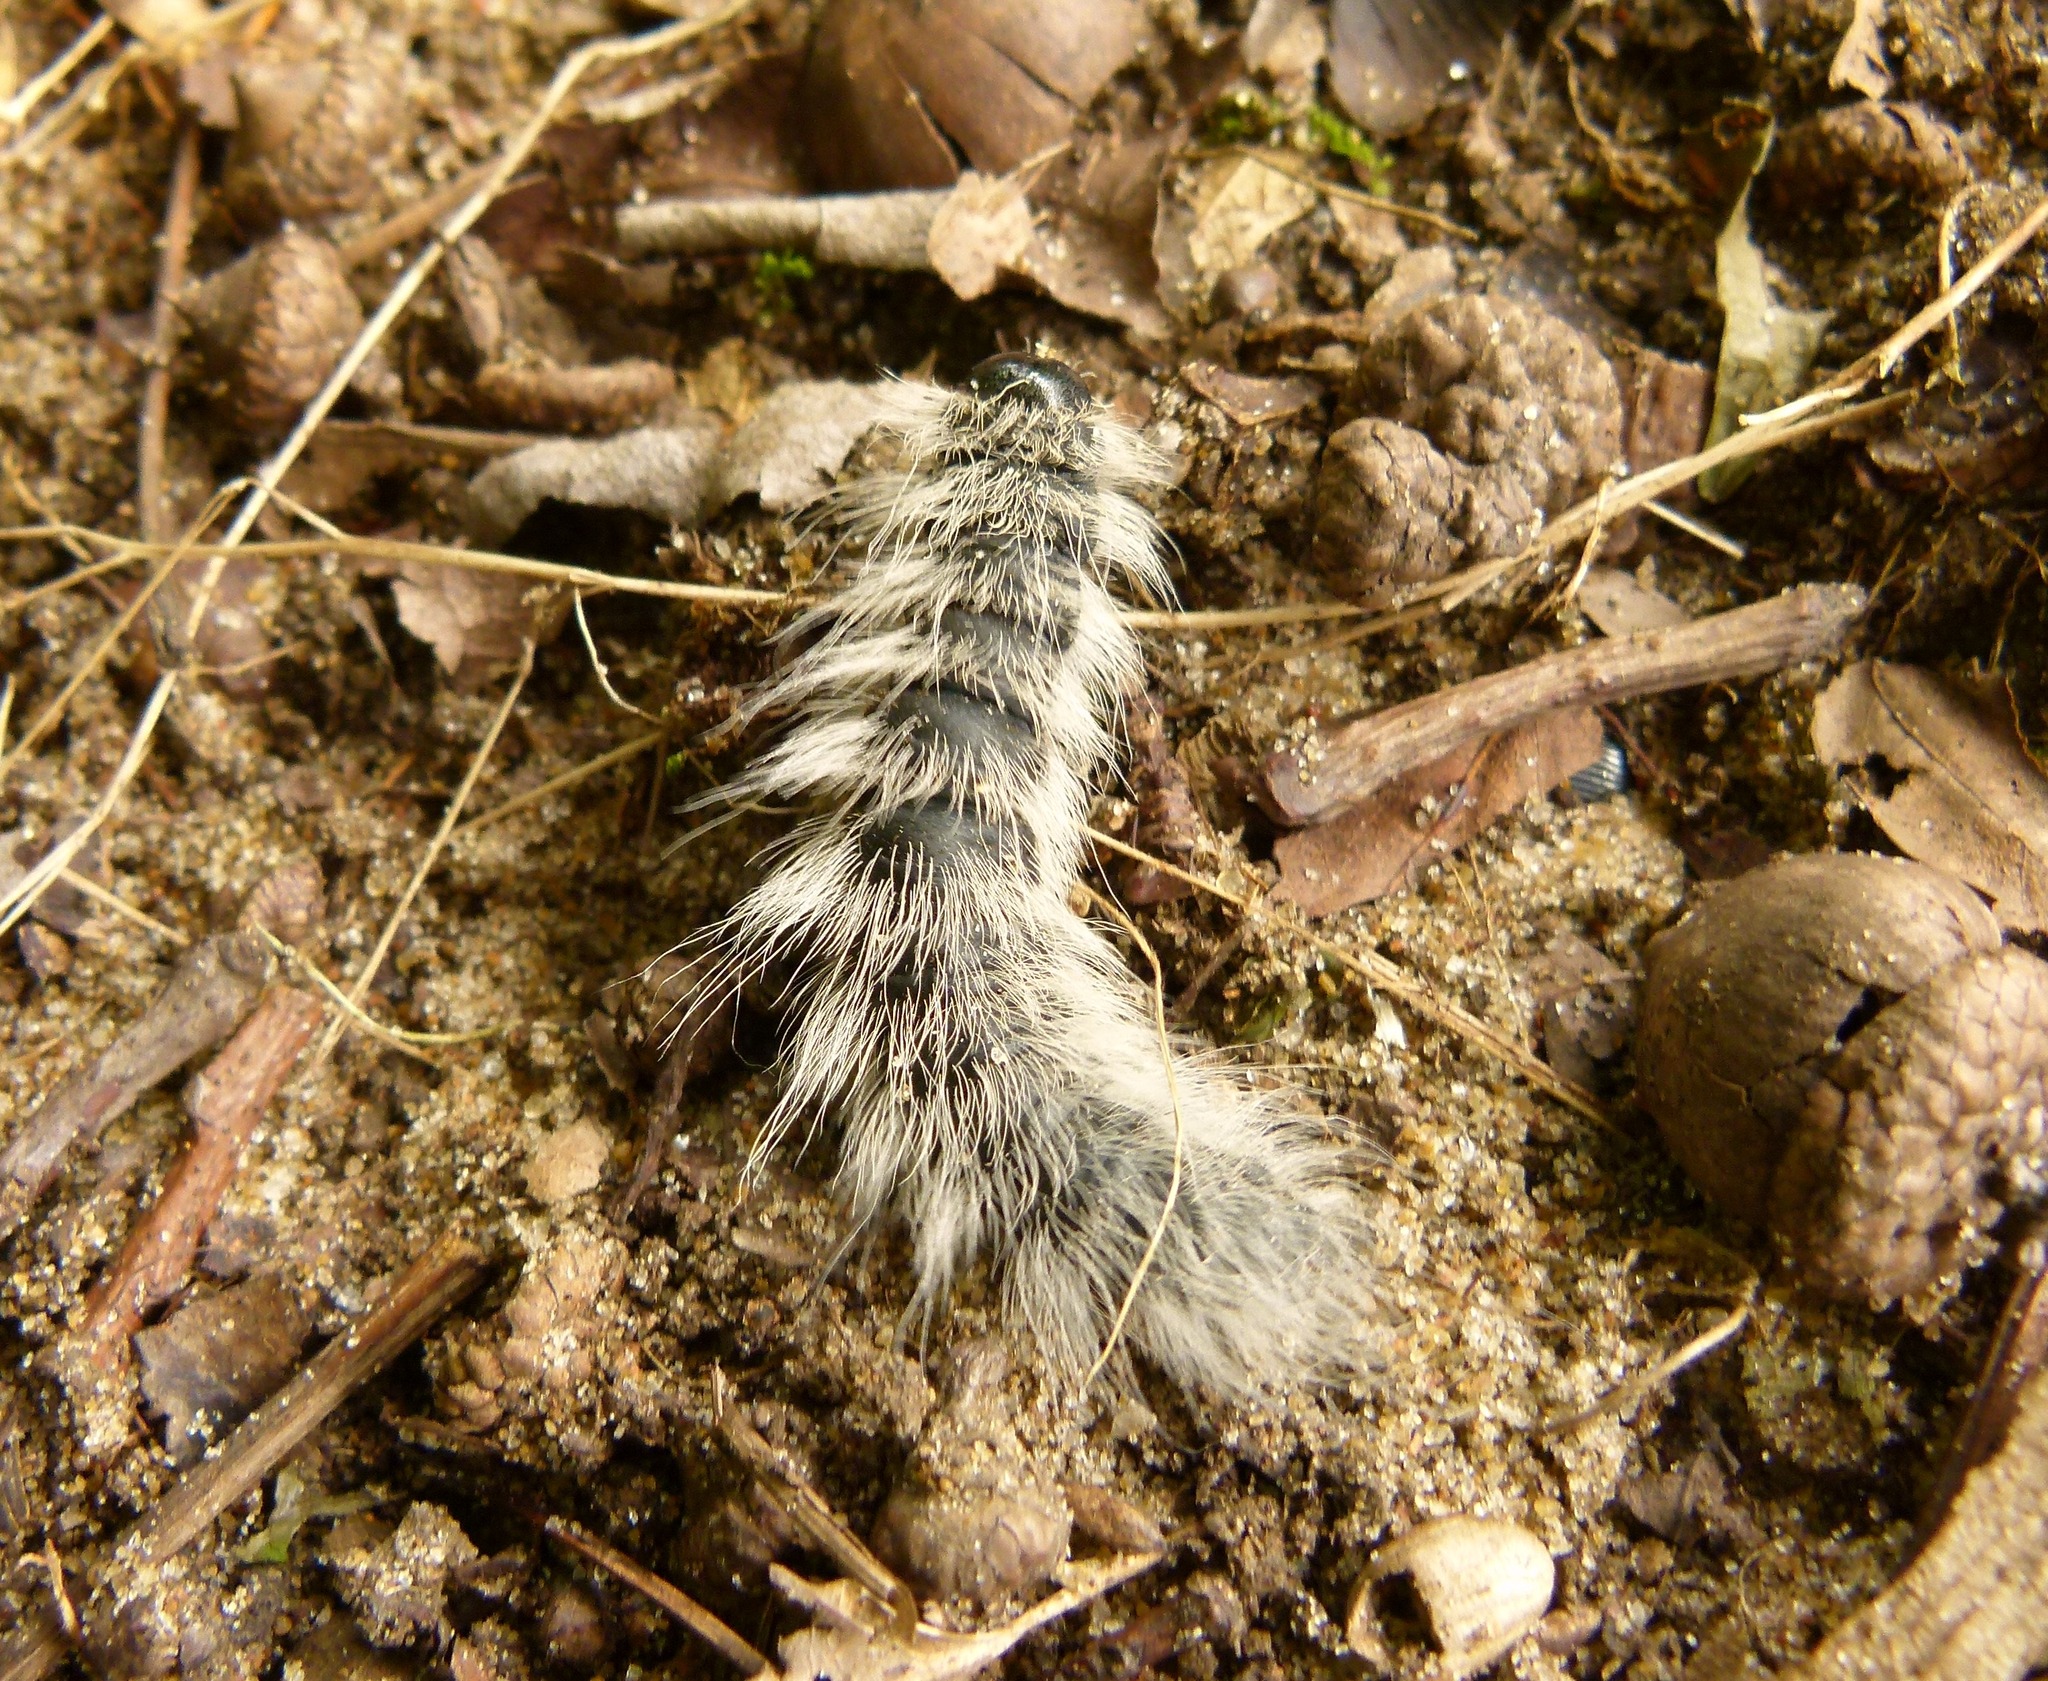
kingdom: Animalia
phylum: Arthropoda
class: Insecta
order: Lepidoptera
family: Notodontidae
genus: Datana
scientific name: Datana integerrima
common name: Walnut caterpillar
